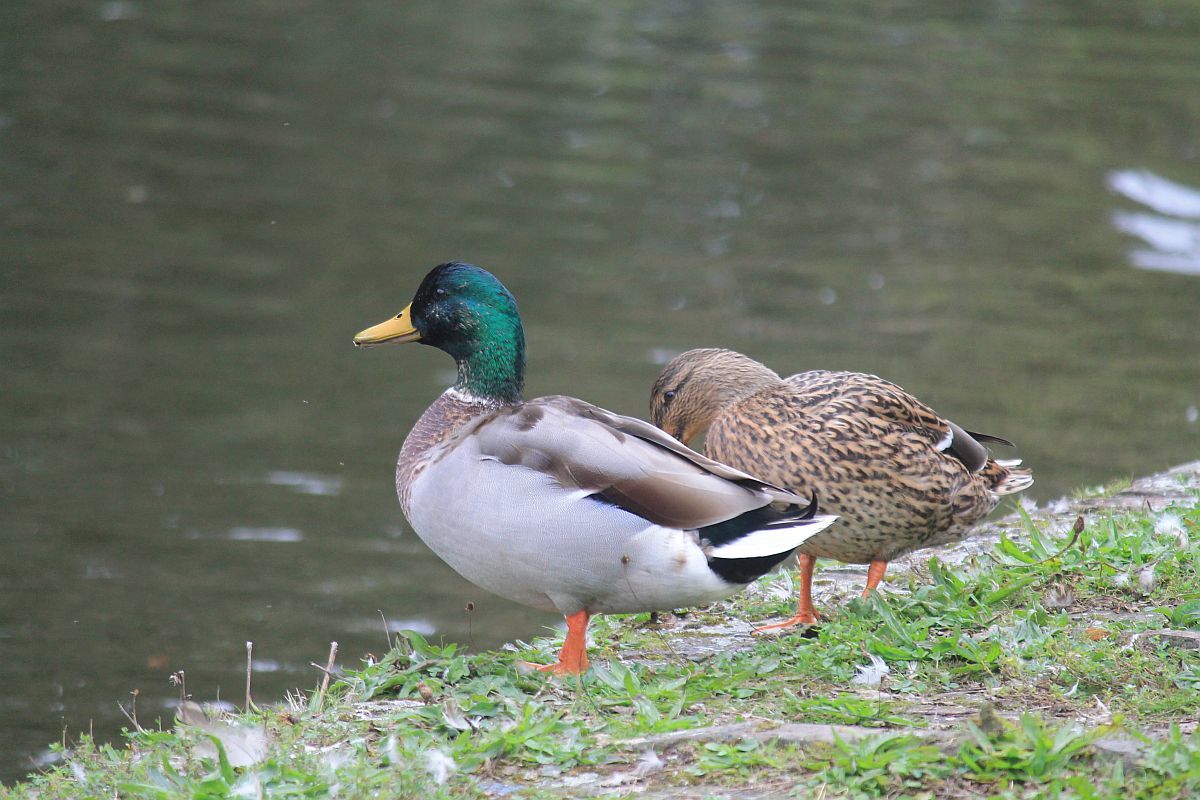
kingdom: Animalia
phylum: Chordata
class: Aves
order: Anseriformes
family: Anatidae
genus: Anas
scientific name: Anas platyrhynchos
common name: Mallard
